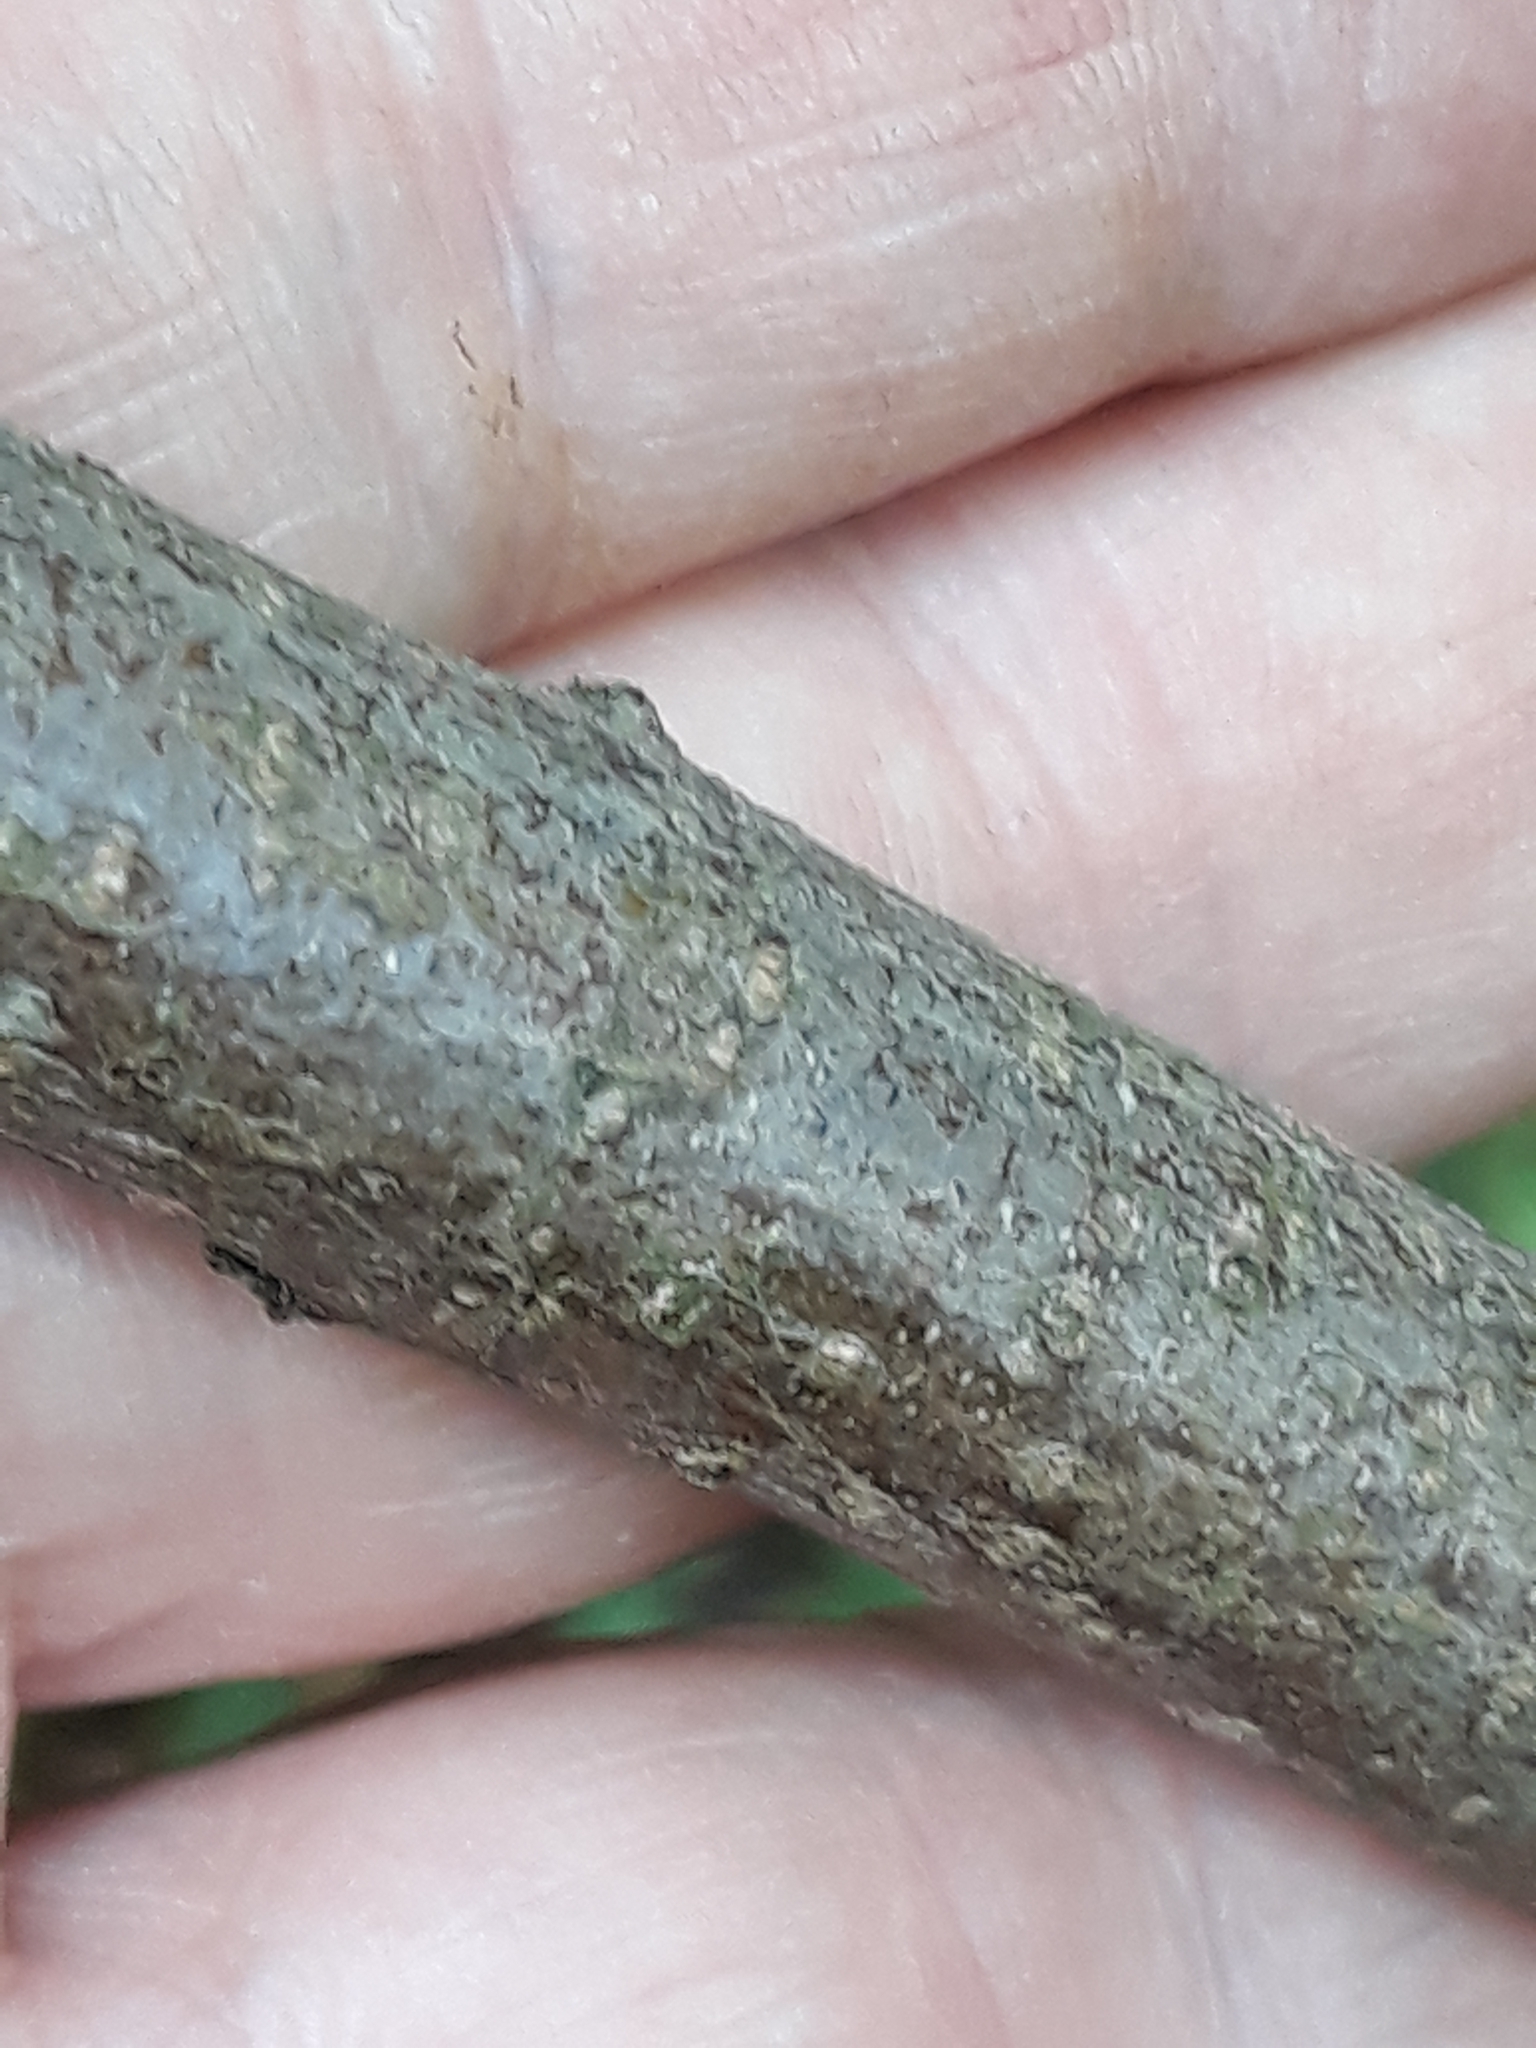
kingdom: Plantae
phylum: Tracheophyta
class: Magnoliopsida
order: Sapindales
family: Sapindaceae
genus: Acer
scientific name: Acer pseudoplatanus
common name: Sycamore
